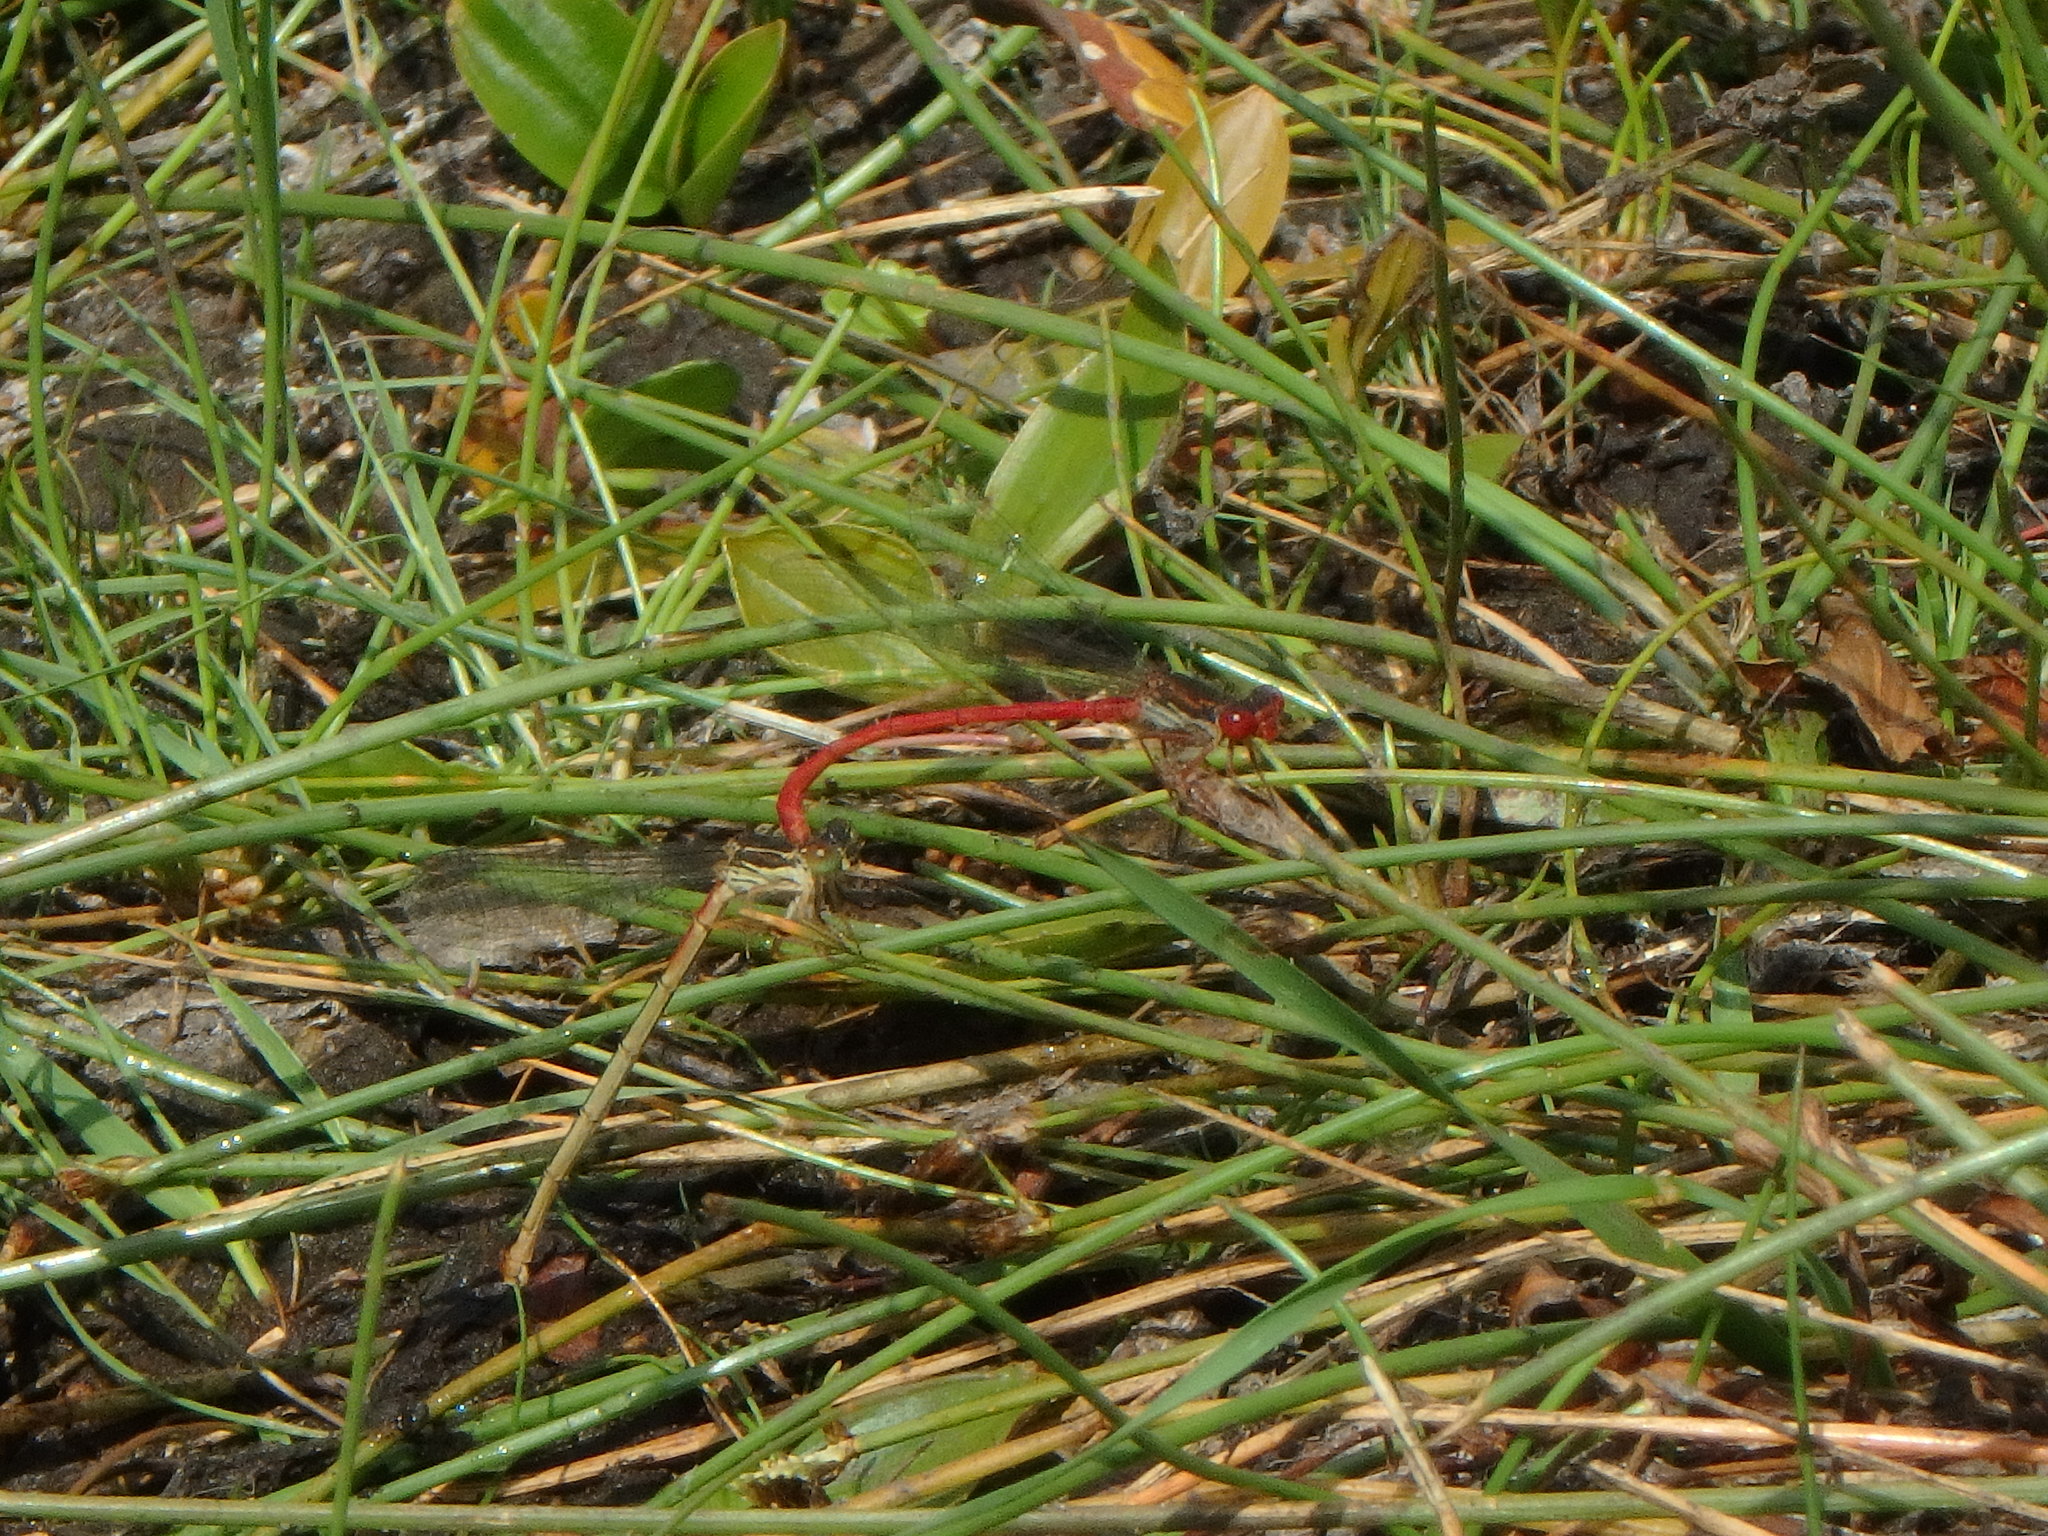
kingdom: Animalia
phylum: Arthropoda
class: Insecta
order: Odonata
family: Coenagrionidae
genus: Ceriagrion
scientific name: Ceriagrion tenellum
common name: Small red damselfly
